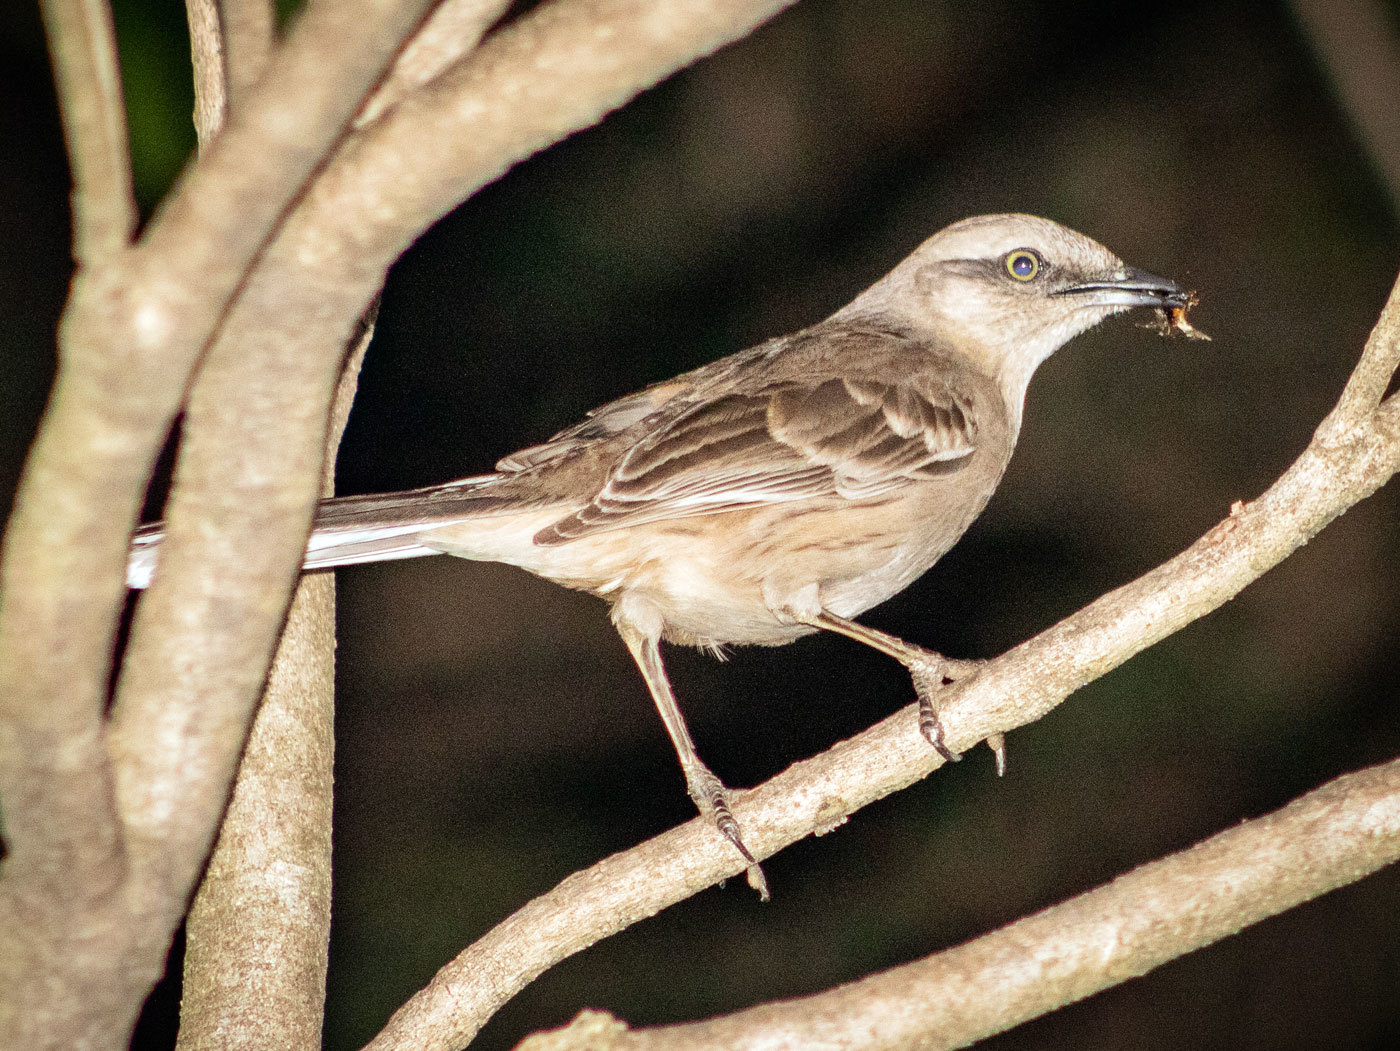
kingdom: Animalia
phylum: Chordata
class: Aves
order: Passeriformes
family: Mimidae
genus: Mimus
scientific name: Mimus saturninus
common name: Chalk-browed mockingbird
